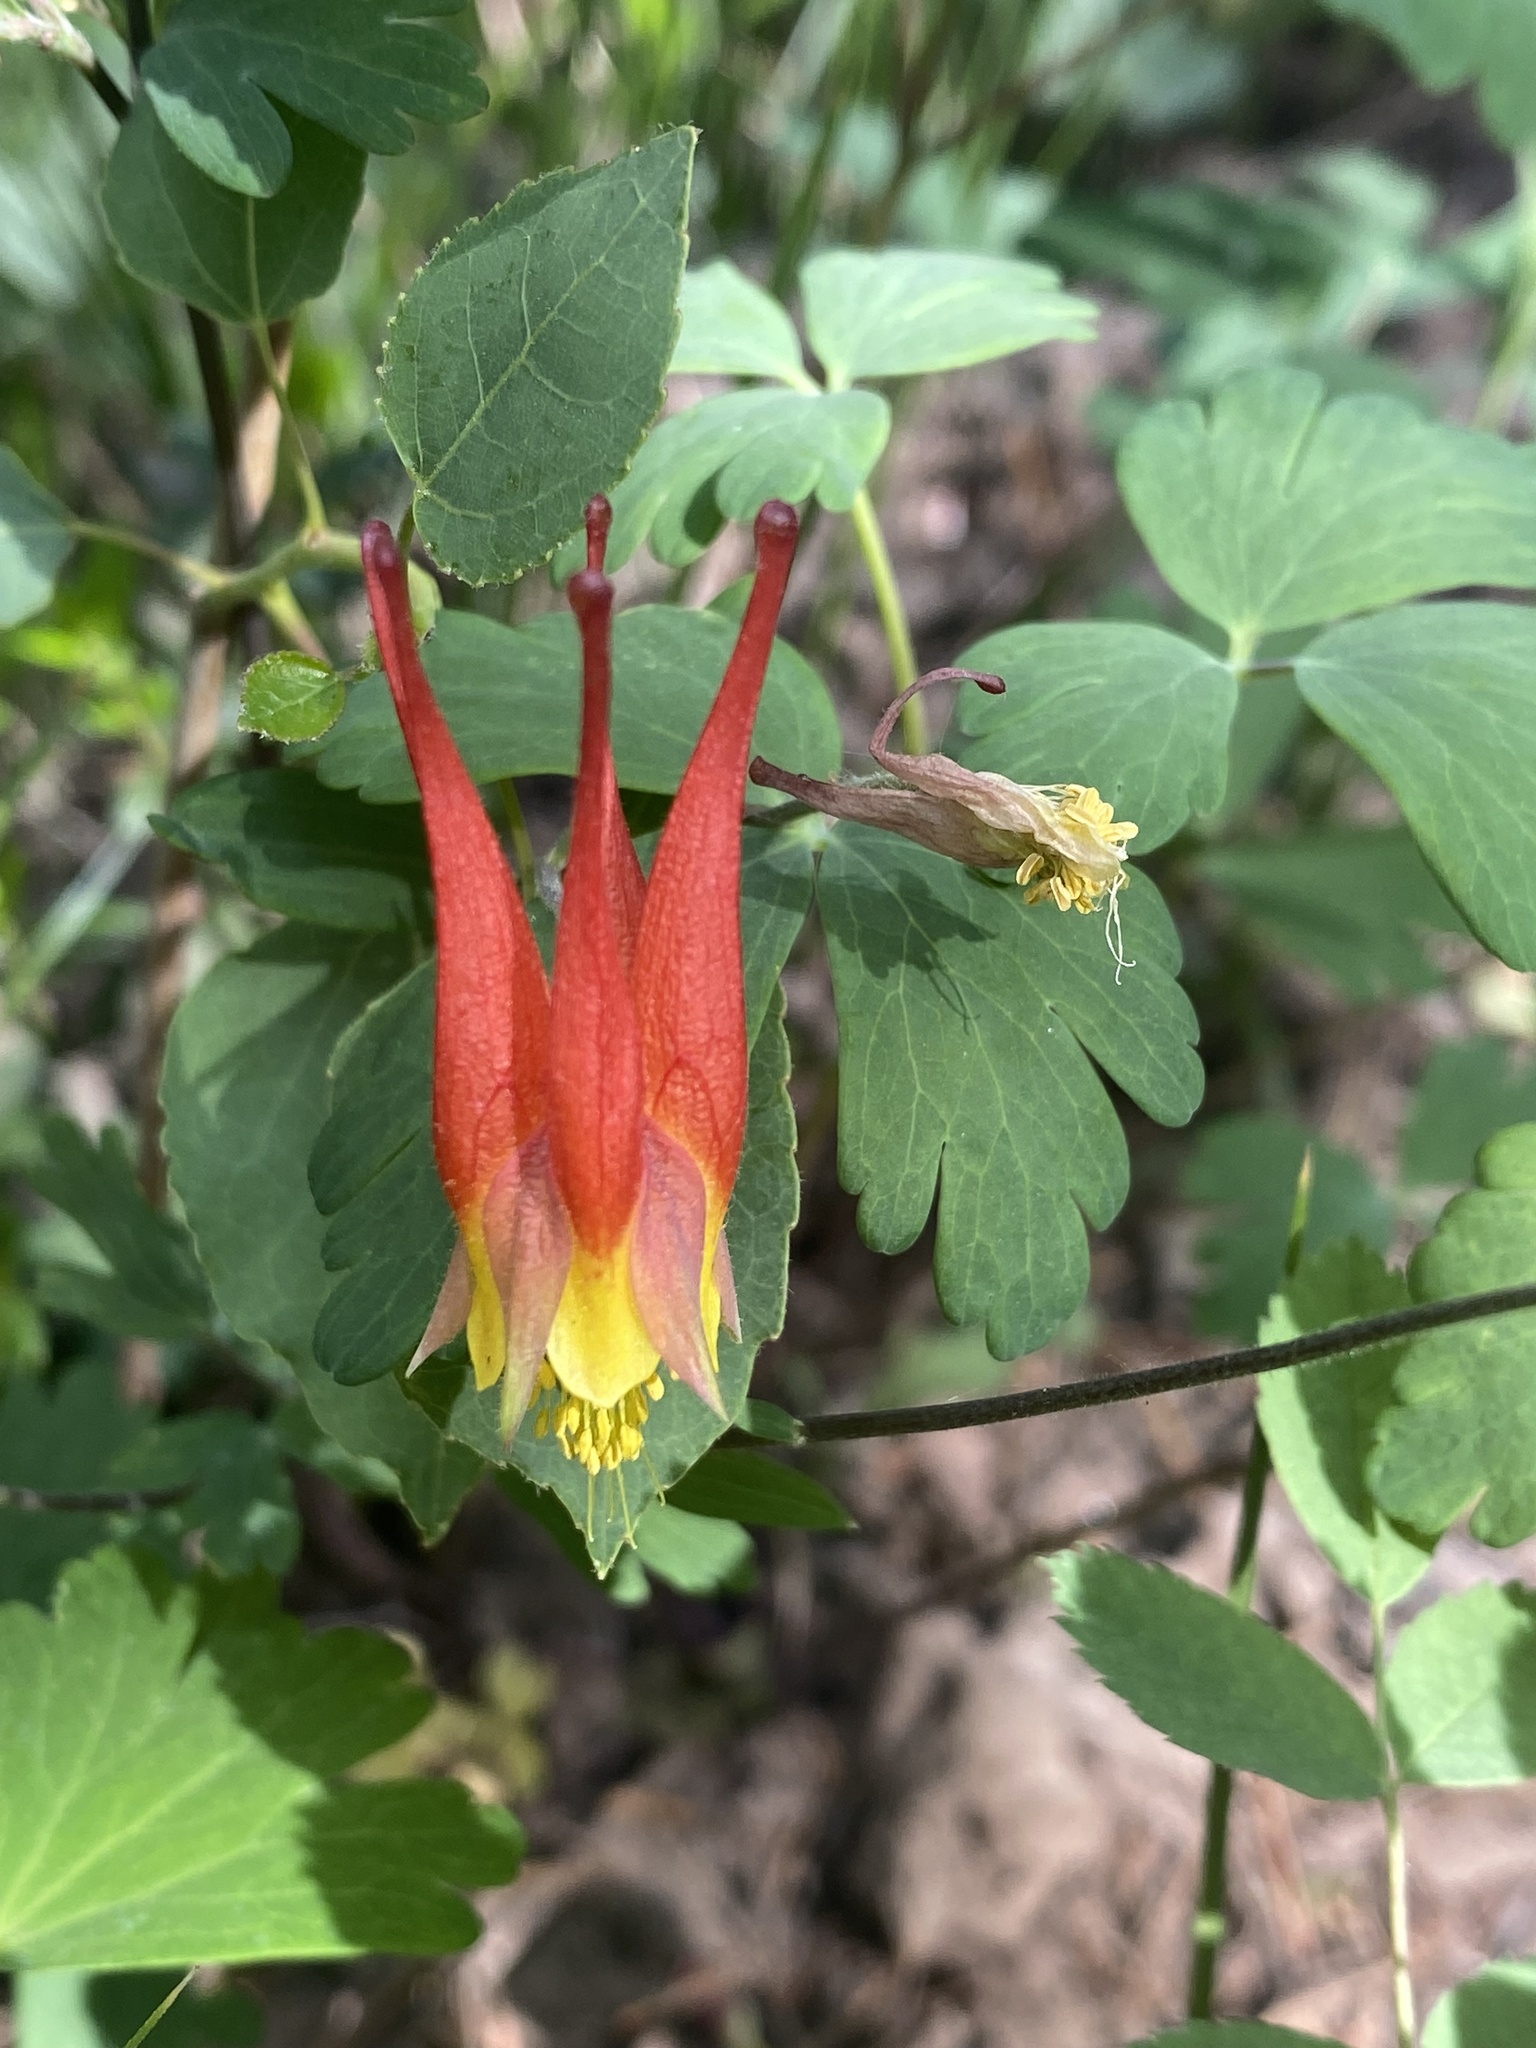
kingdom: Plantae
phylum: Tracheophyta
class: Magnoliopsida
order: Ranunculales
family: Ranunculaceae
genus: Aquilegia
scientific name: Aquilegia elegantula
